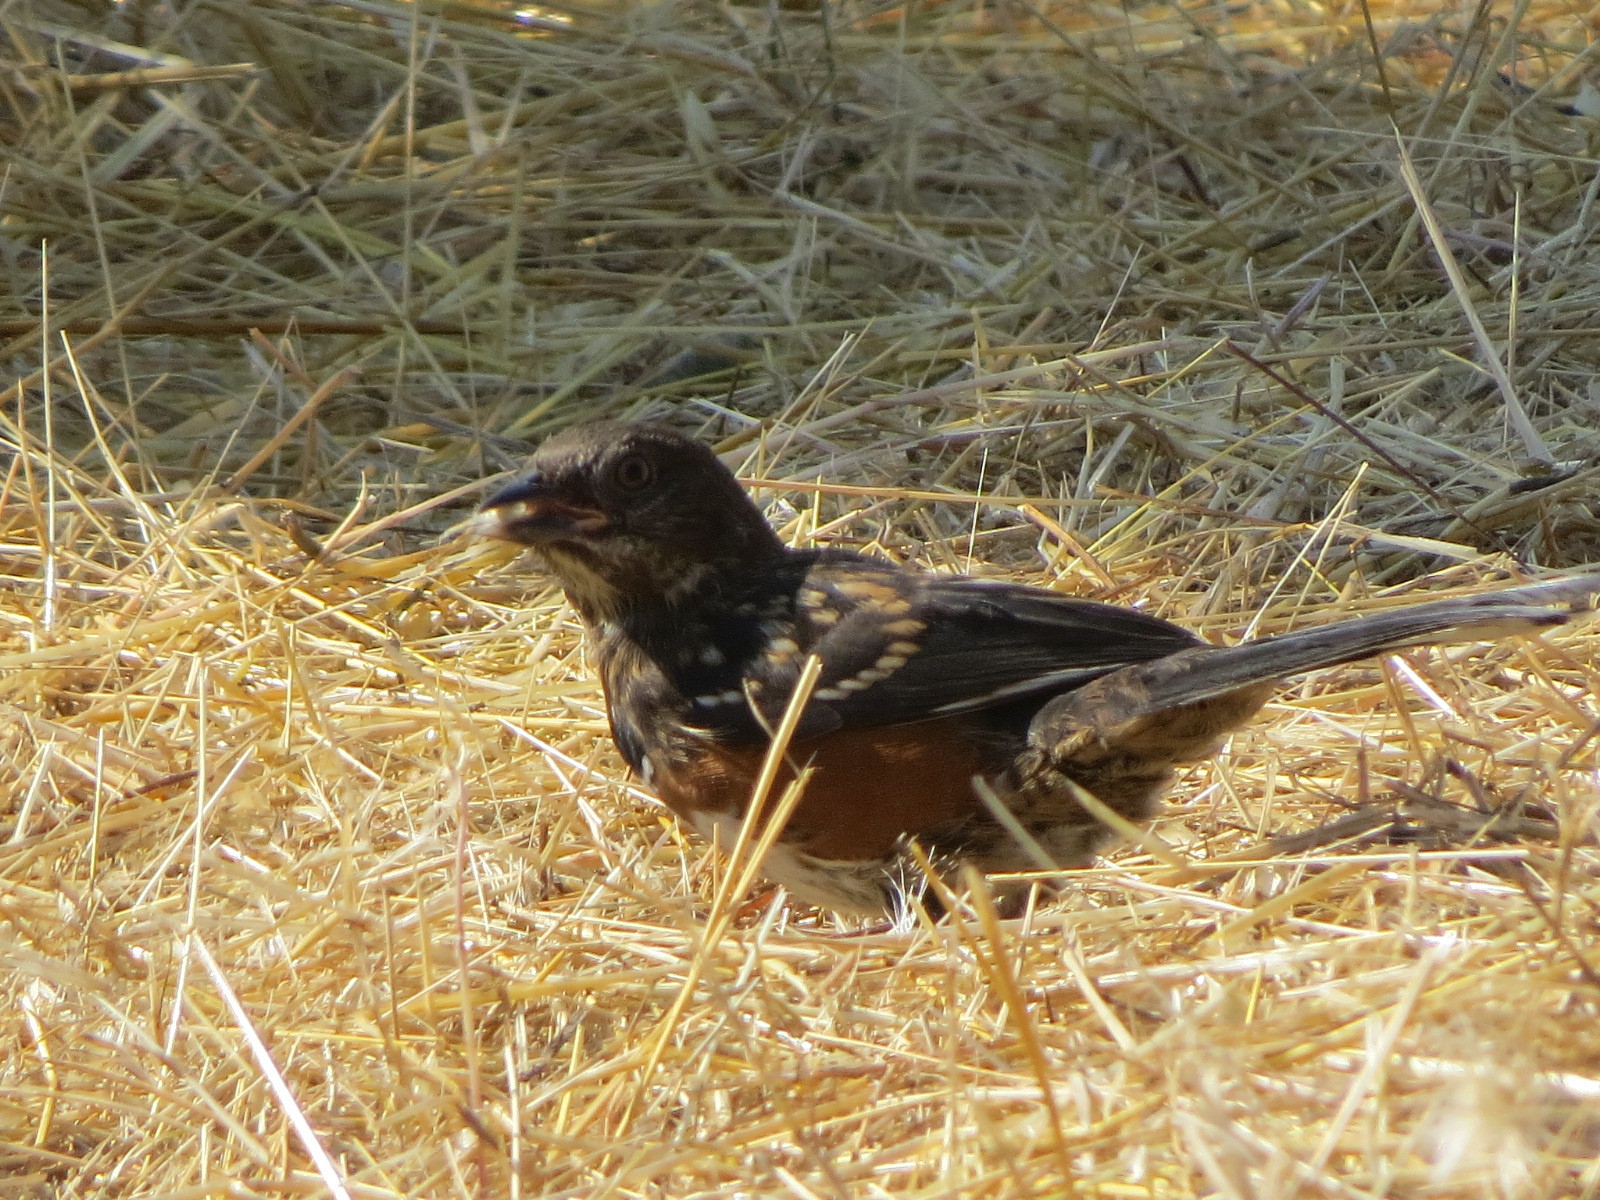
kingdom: Animalia
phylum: Chordata
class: Aves
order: Passeriformes
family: Passerellidae
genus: Pipilo
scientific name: Pipilo maculatus
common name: Spotted towhee
